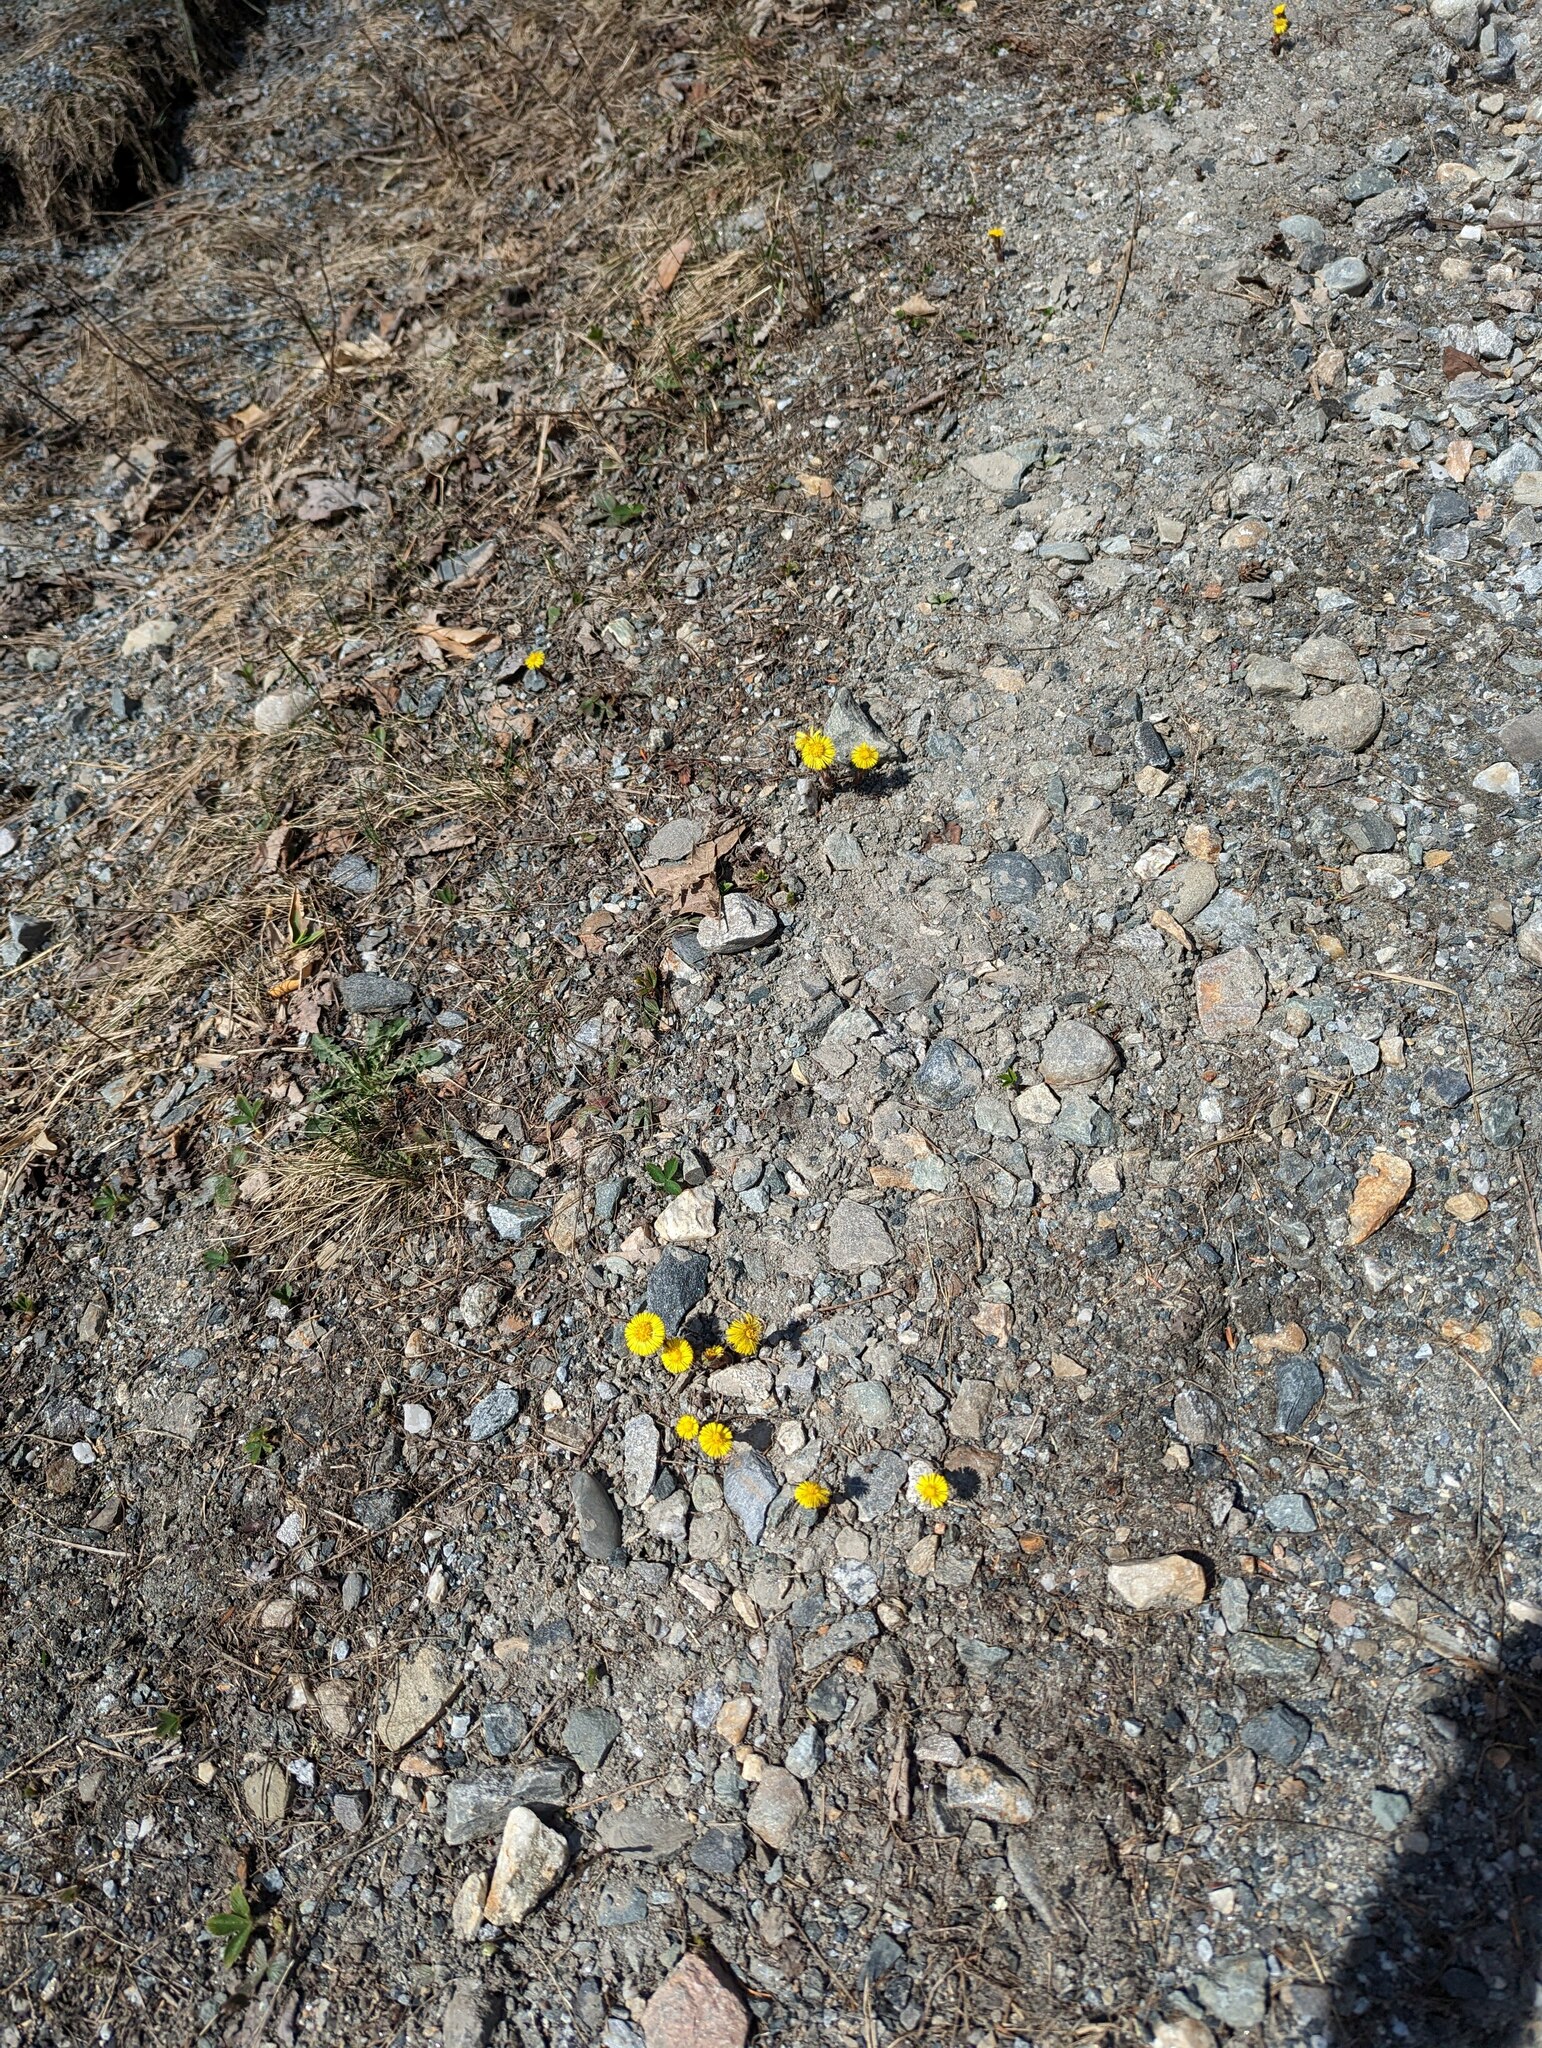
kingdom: Plantae
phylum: Tracheophyta
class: Magnoliopsida
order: Asterales
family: Asteraceae
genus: Tussilago
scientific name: Tussilago farfara
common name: Coltsfoot
